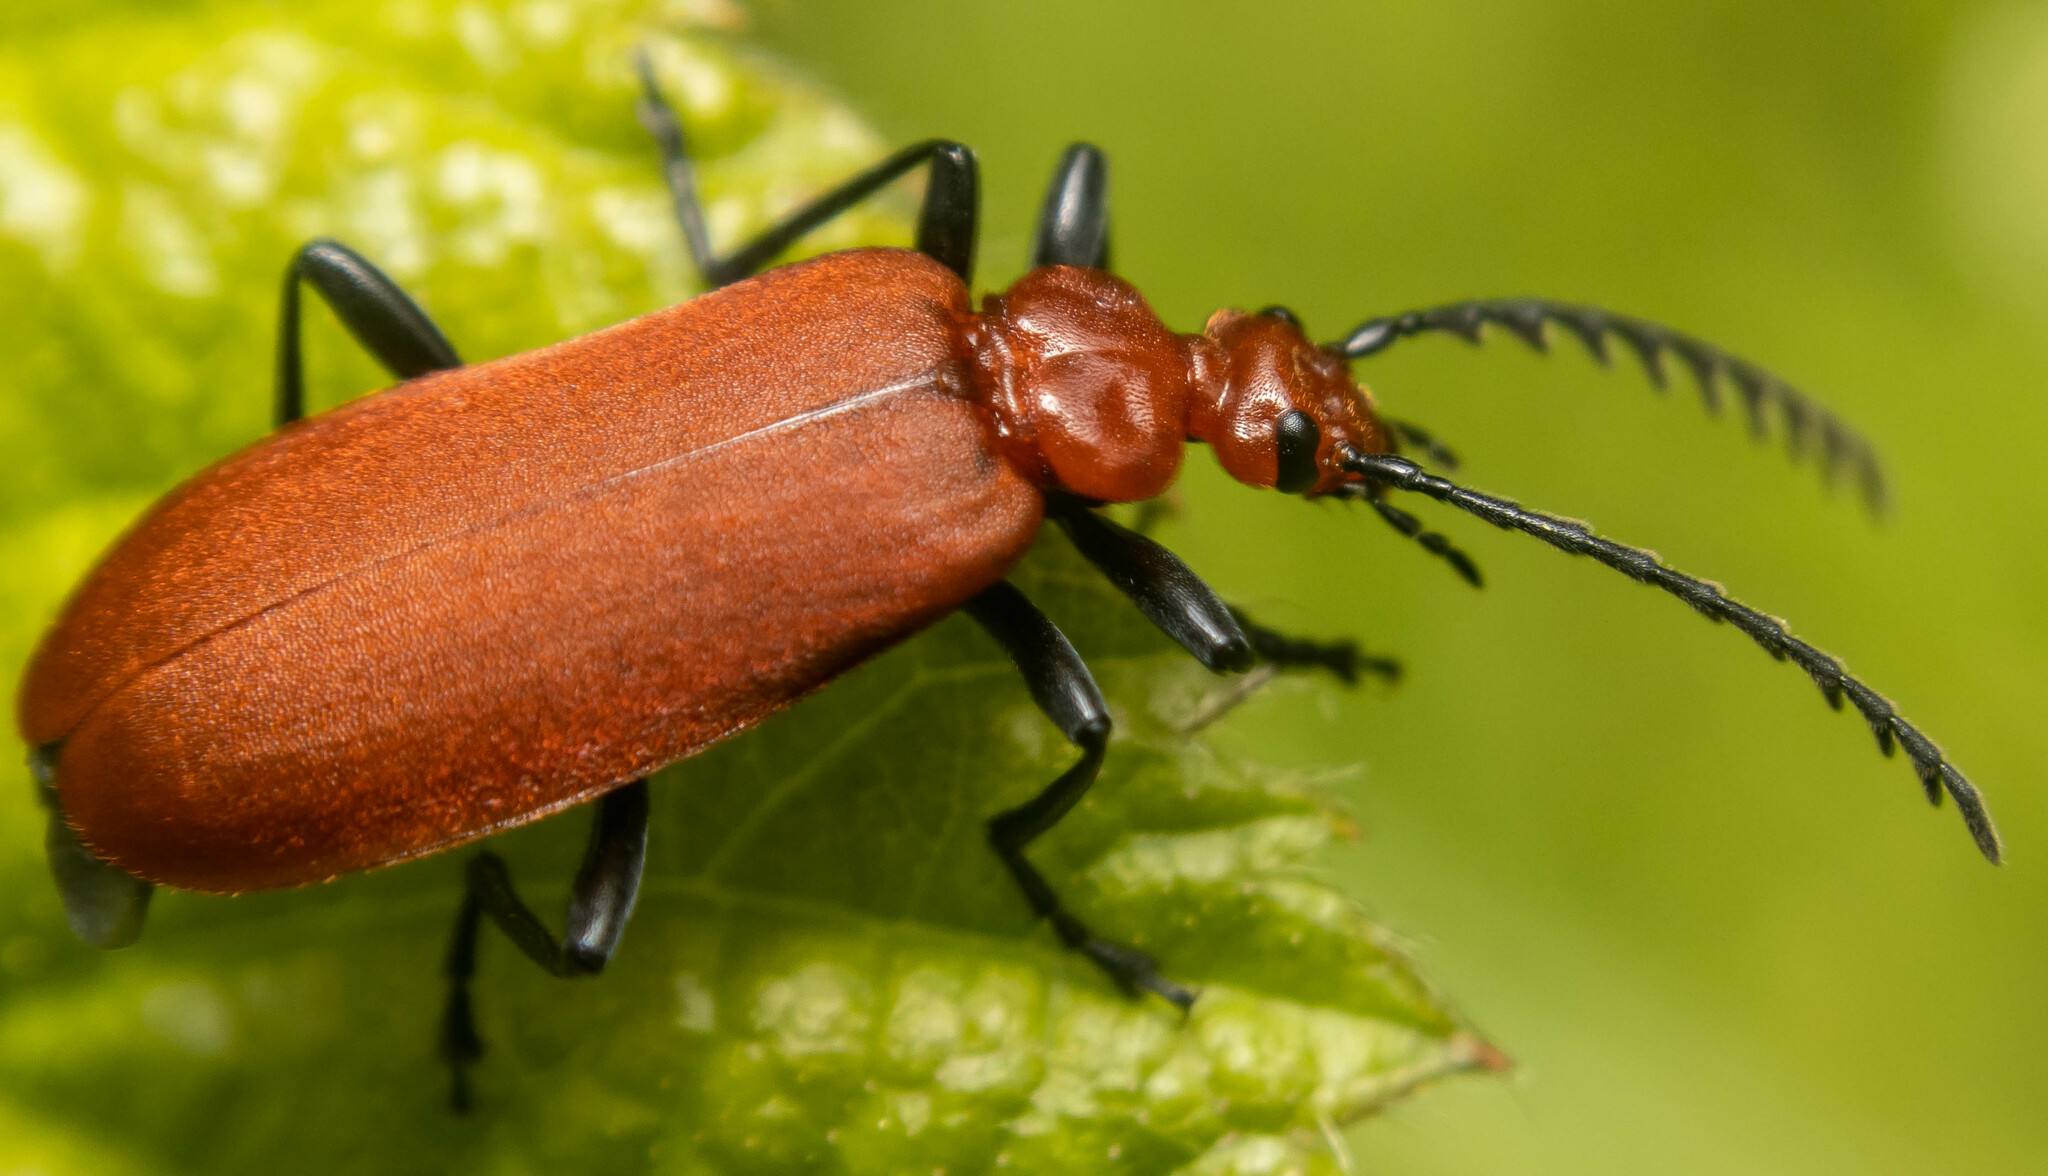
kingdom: Animalia
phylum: Arthropoda
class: Insecta
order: Coleoptera
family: Pyrochroidae
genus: Pyrochroa
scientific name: Pyrochroa serraticornis
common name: Red-headed cardinal beetle
